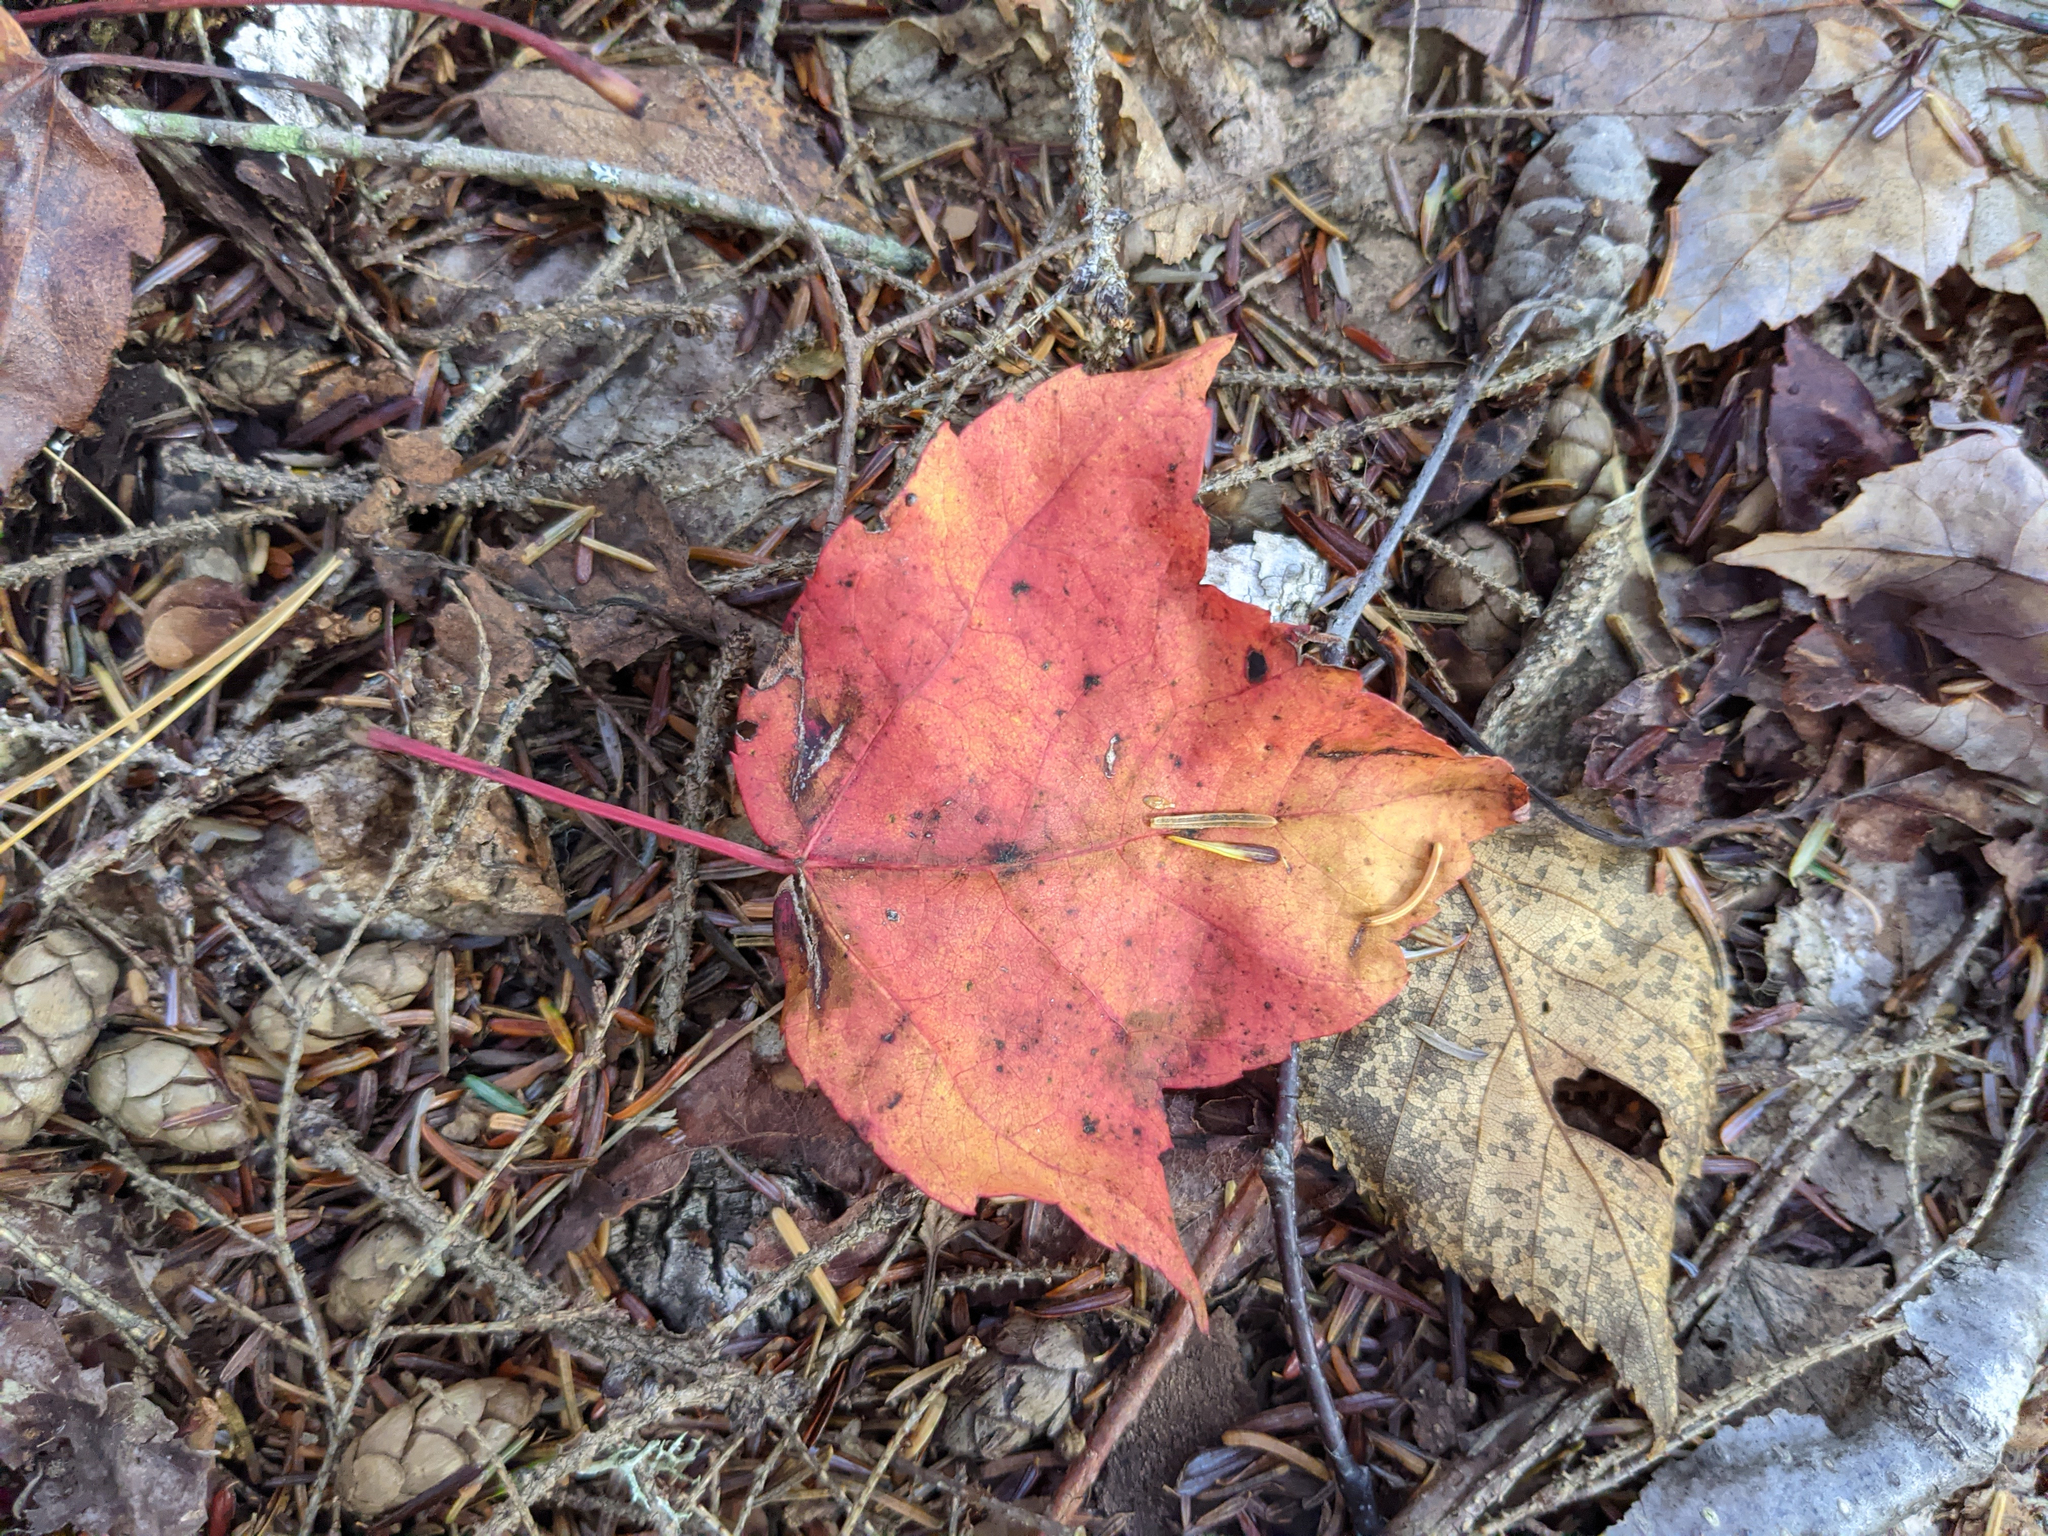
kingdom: Plantae
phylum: Tracheophyta
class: Magnoliopsida
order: Sapindales
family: Sapindaceae
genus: Acer
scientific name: Acer rubrum
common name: Red maple
